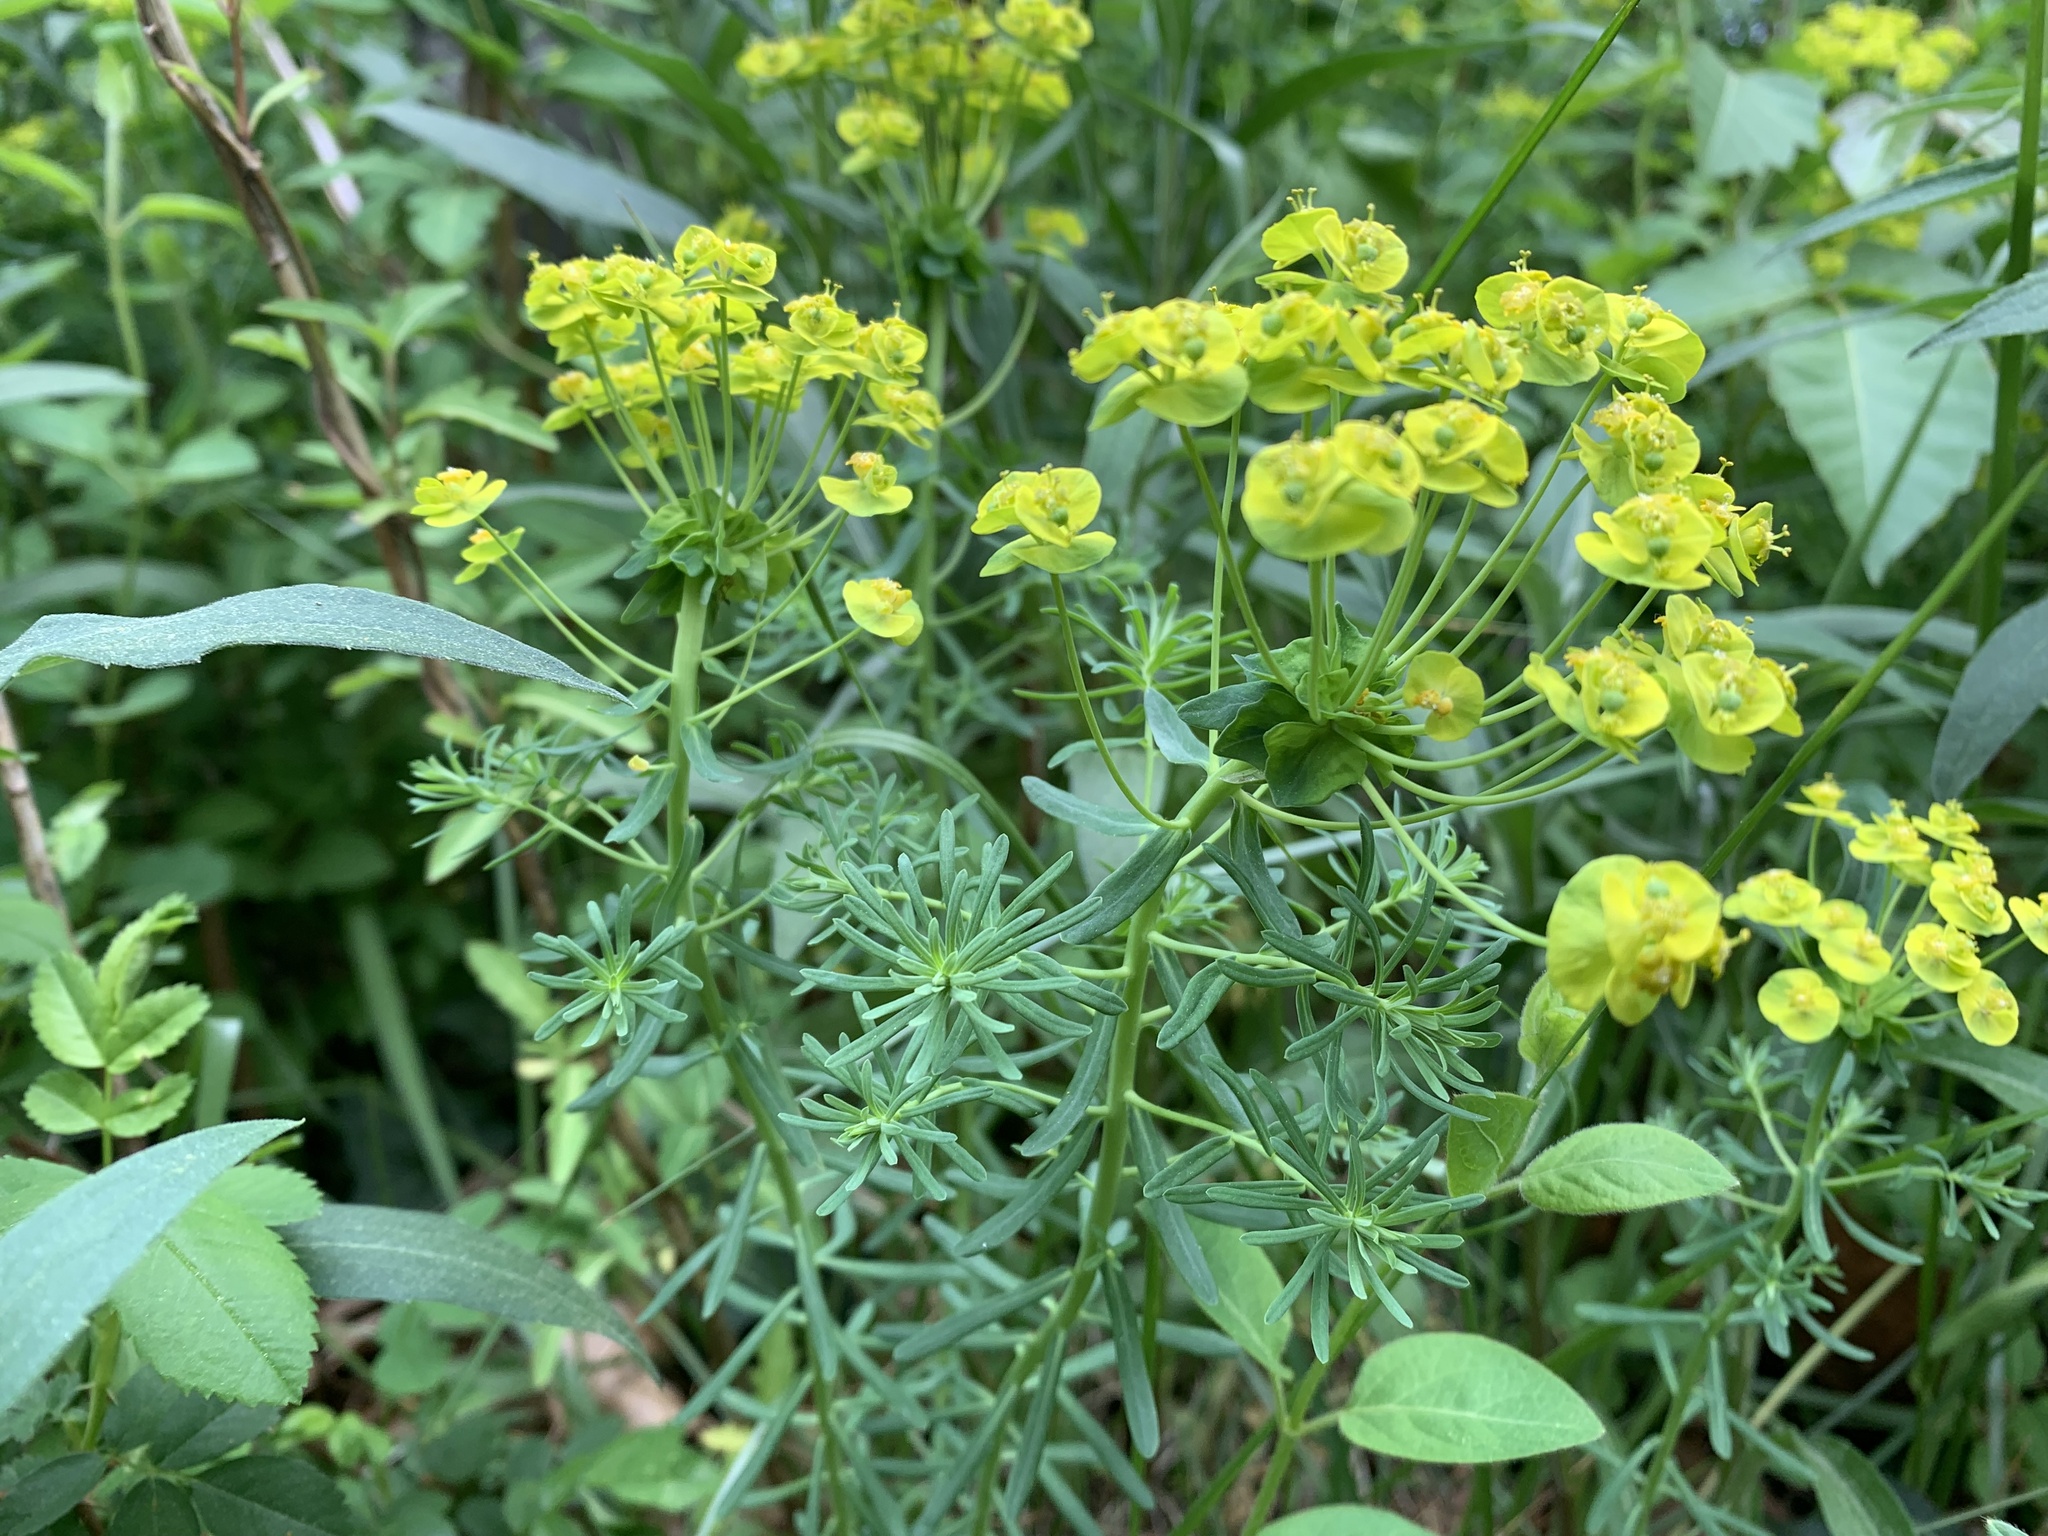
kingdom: Plantae
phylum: Tracheophyta
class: Magnoliopsida
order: Malpighiales
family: Euphorbiaceae
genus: Euphorbia
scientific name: Euphorbia cyparissias
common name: Cypress spurge
